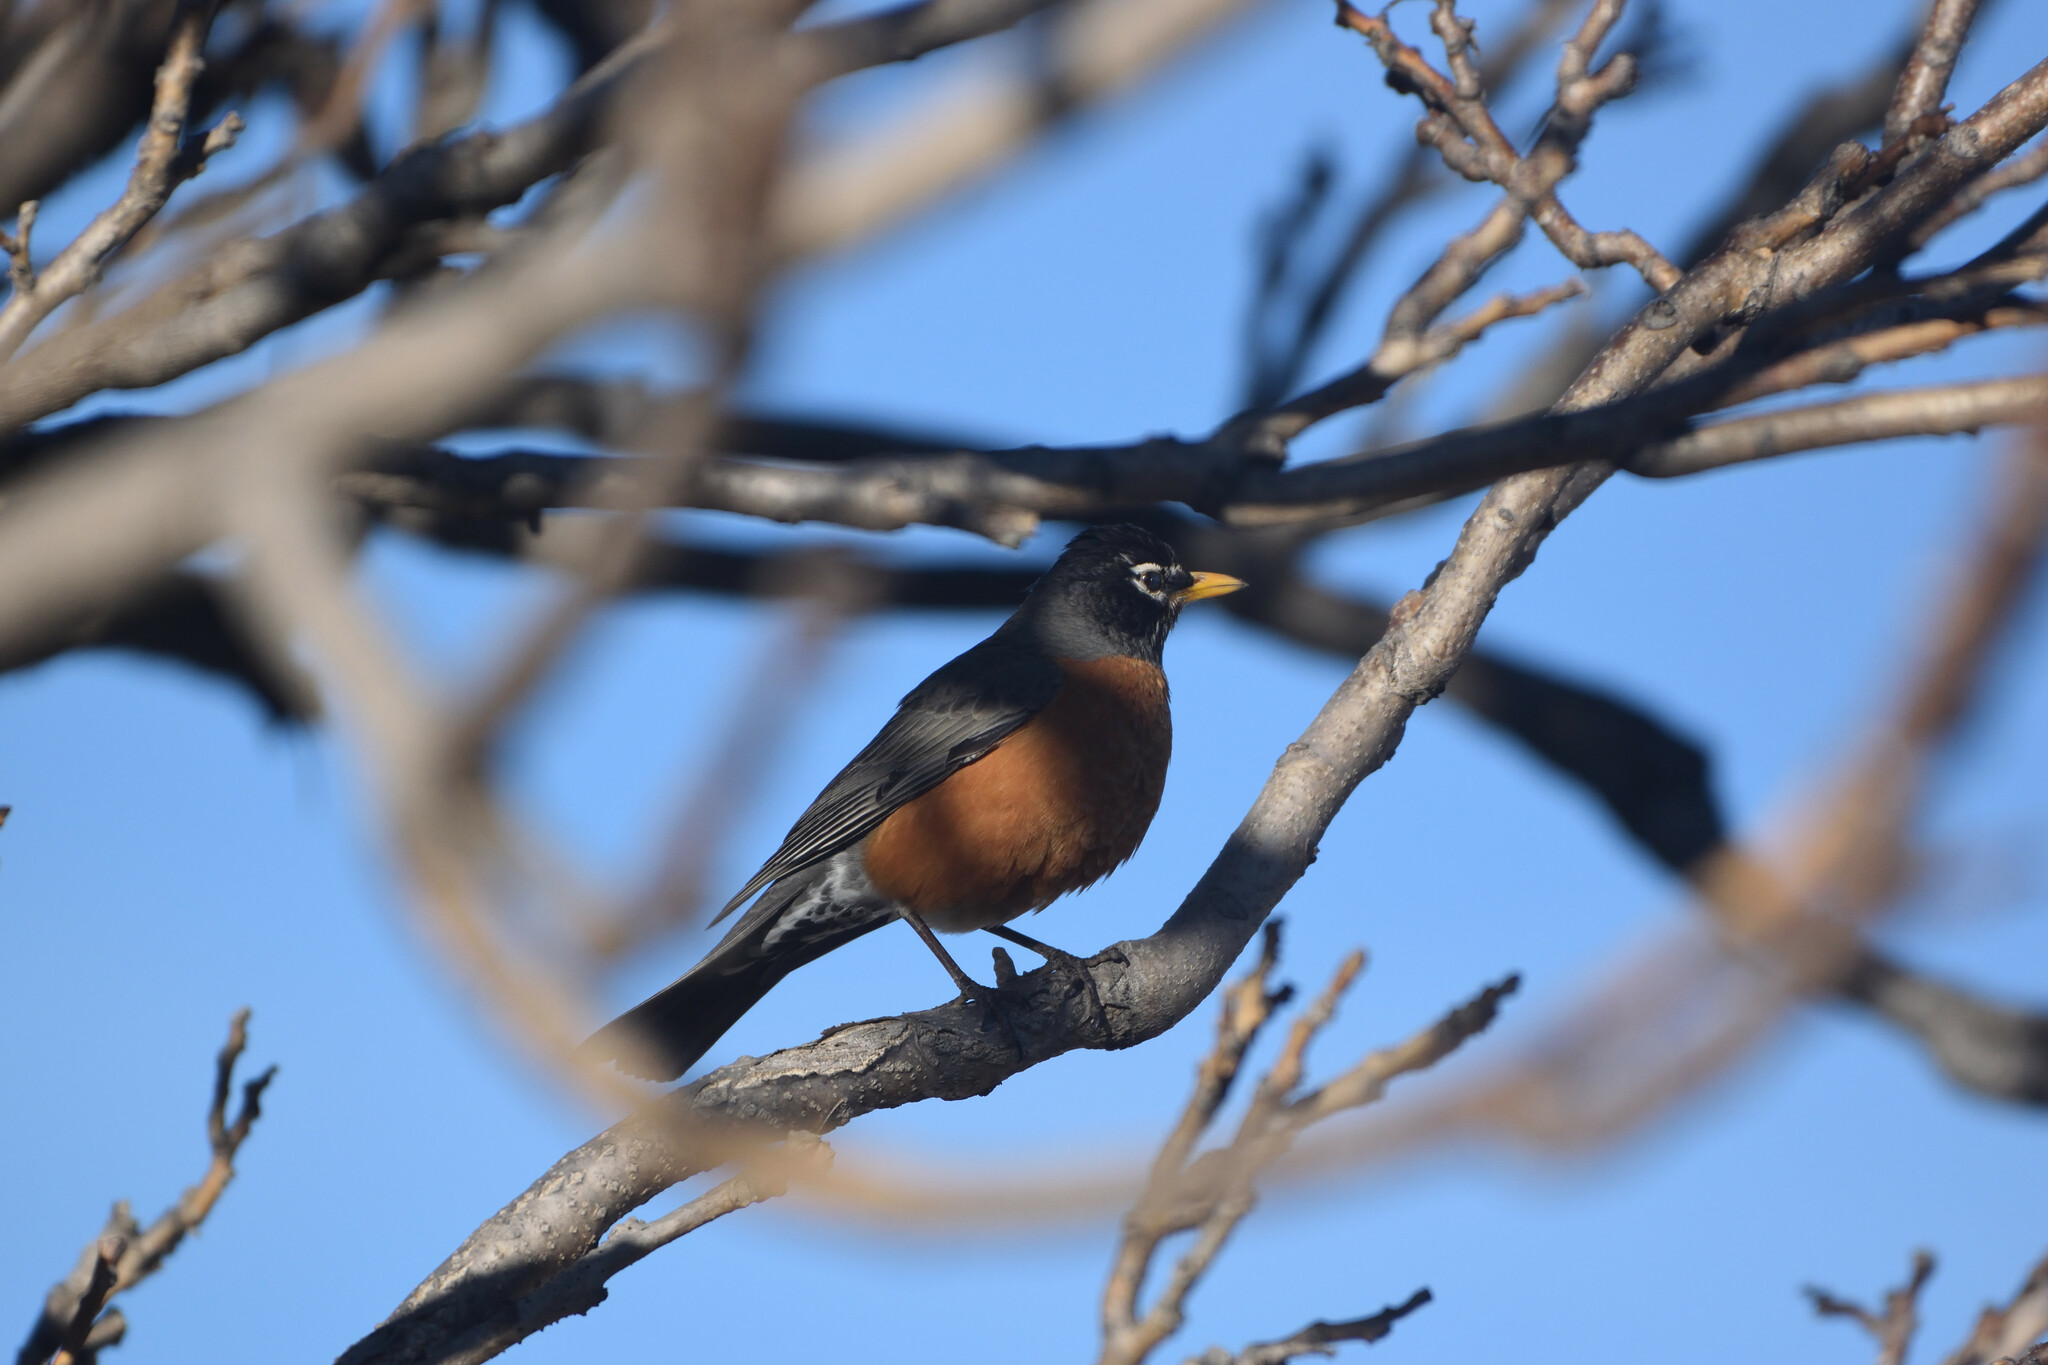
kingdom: Animalia
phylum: Chordata
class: Aves
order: Passeriformes
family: Turdidae
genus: Turdus
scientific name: Turdus migratorius
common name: American robin
